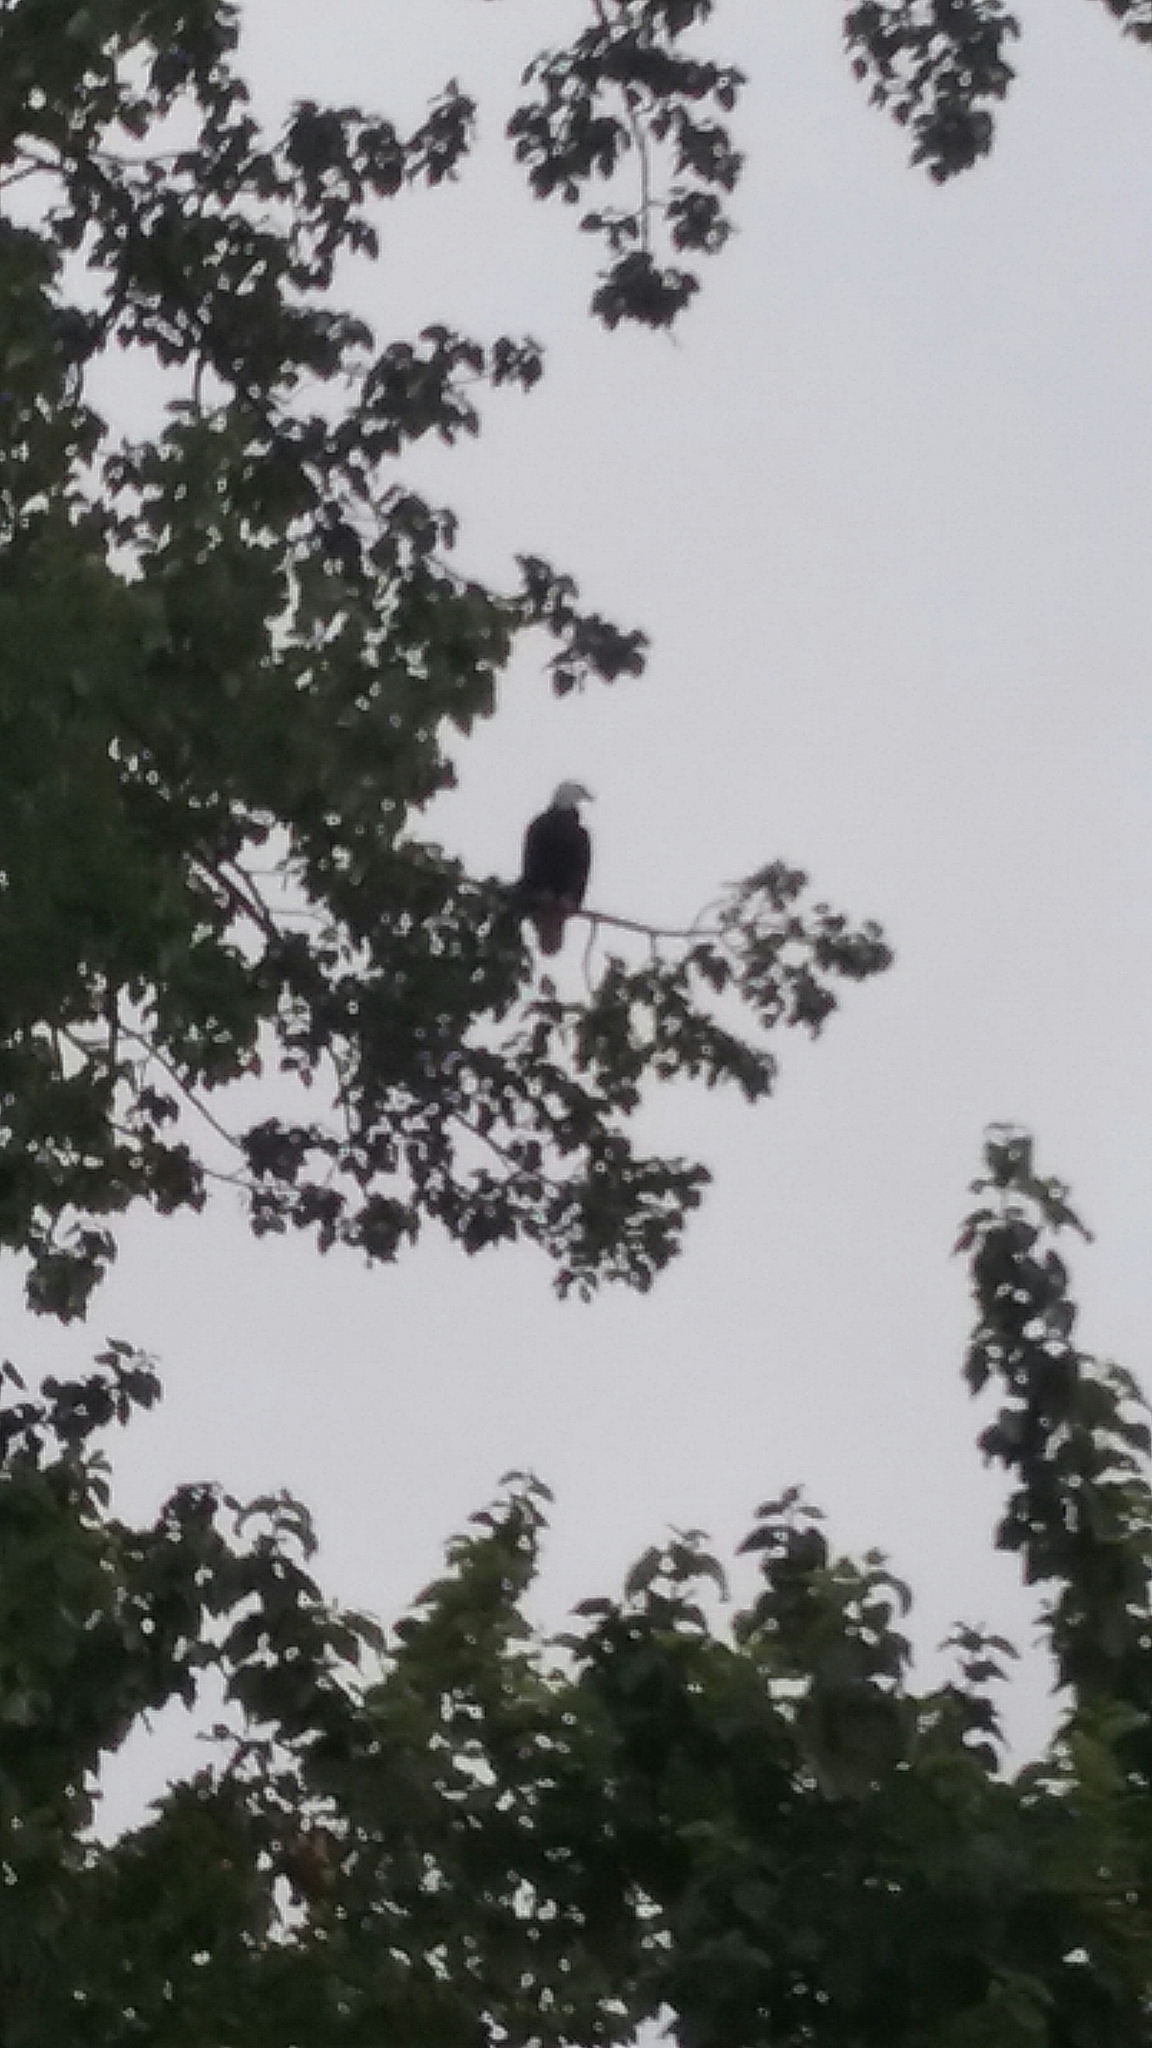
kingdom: Animalia
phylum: Chordata
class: Aves
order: Accipitriformes
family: Accipitridae
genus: Haliaeetus
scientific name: Haliaeetus leucocephalus
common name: Bald eagle
